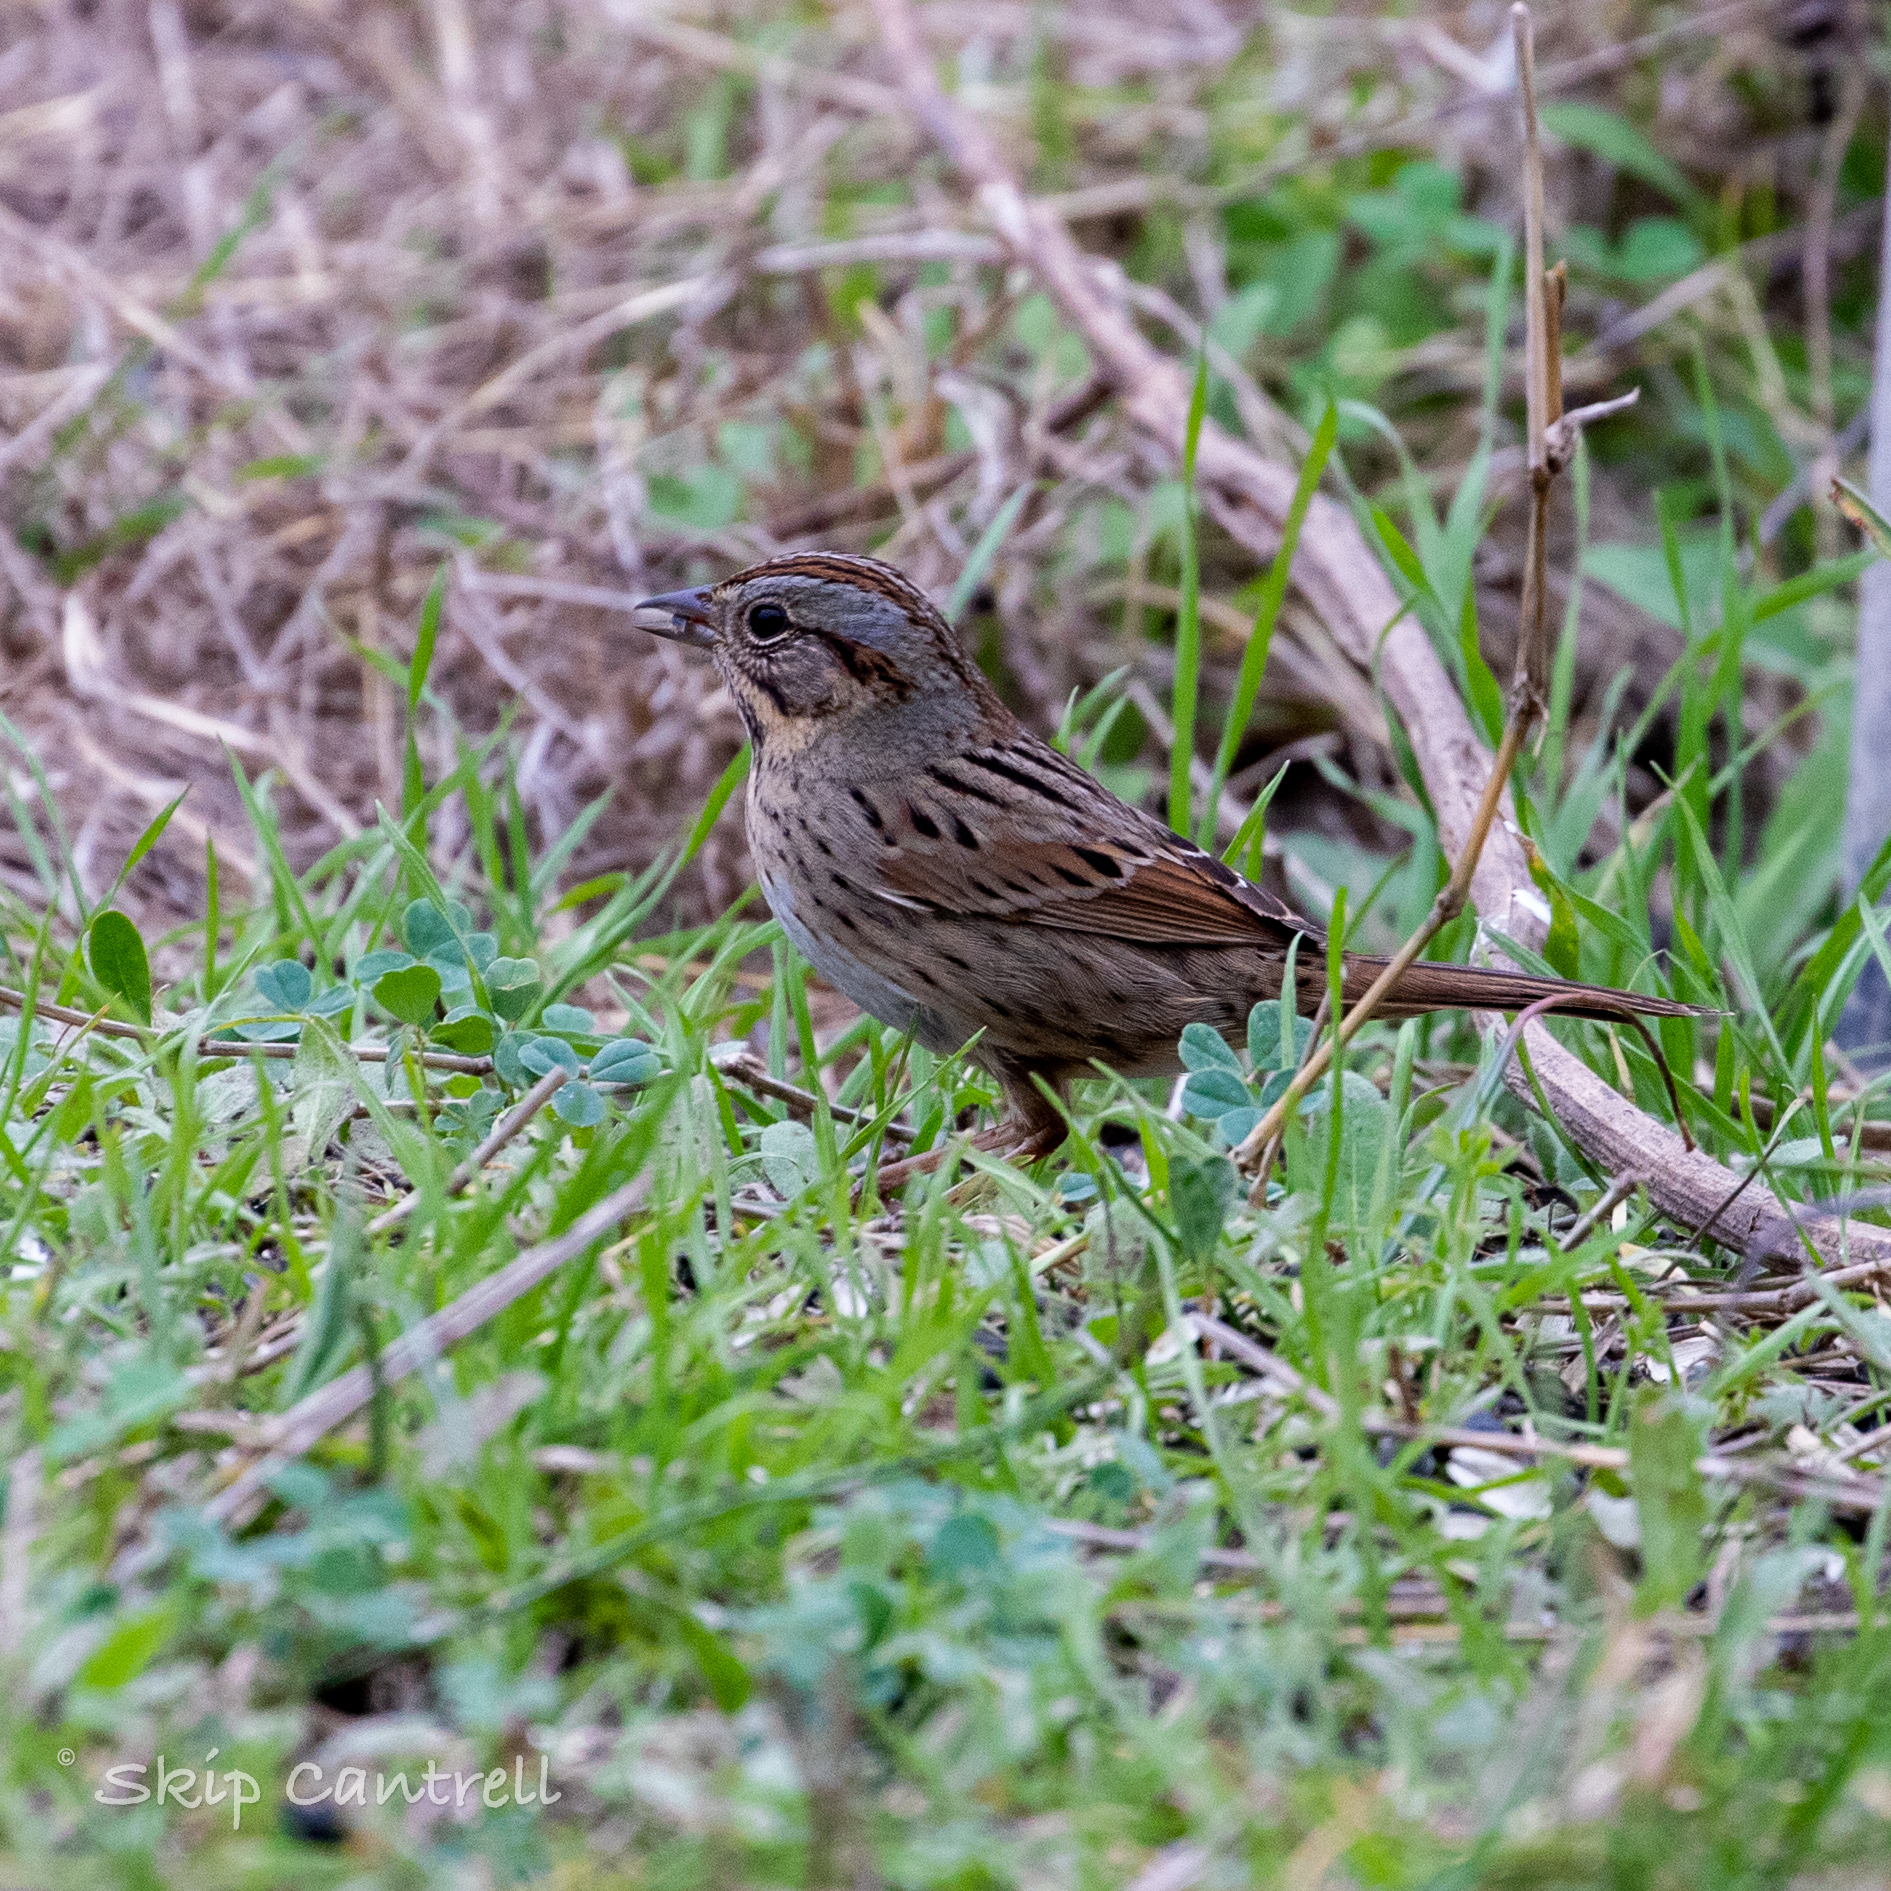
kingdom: Animalia
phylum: Chordata
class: Aves
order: Passeriformes
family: Passerellidae
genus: Melospiza
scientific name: Melospiza lincolnii
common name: Lincoln's sparrow
